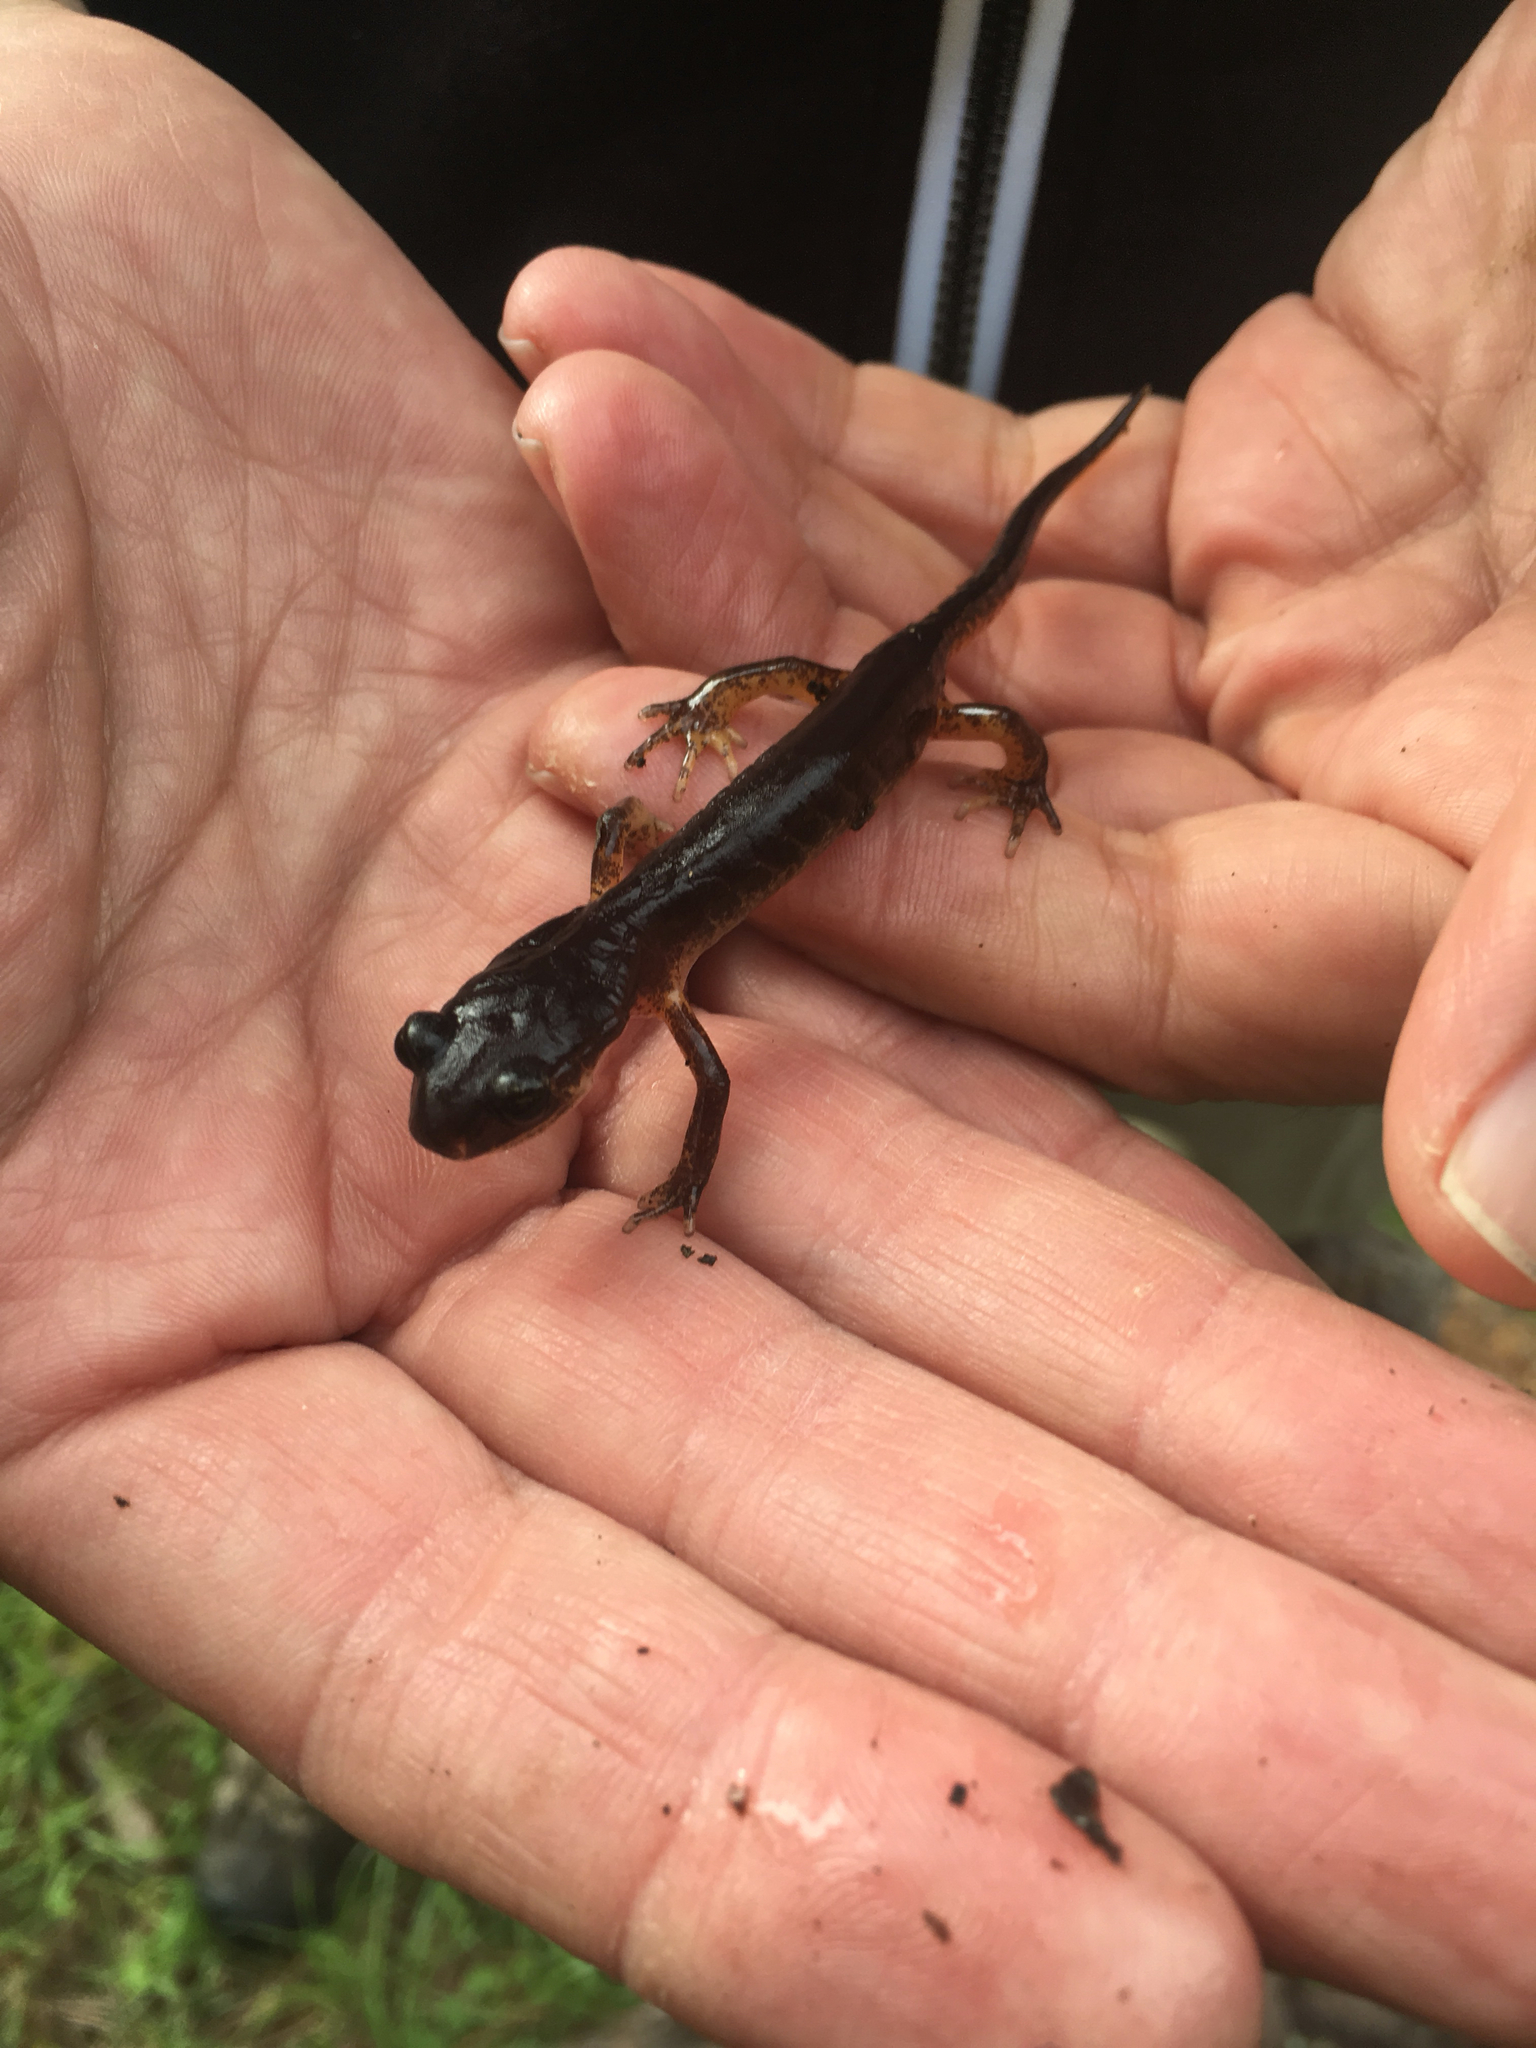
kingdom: Animalia
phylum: Chordata
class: Amphibia
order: Caudata
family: Plethodontidae
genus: Ensatina
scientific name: Ensatina eschscholtzii
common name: Ensatina
